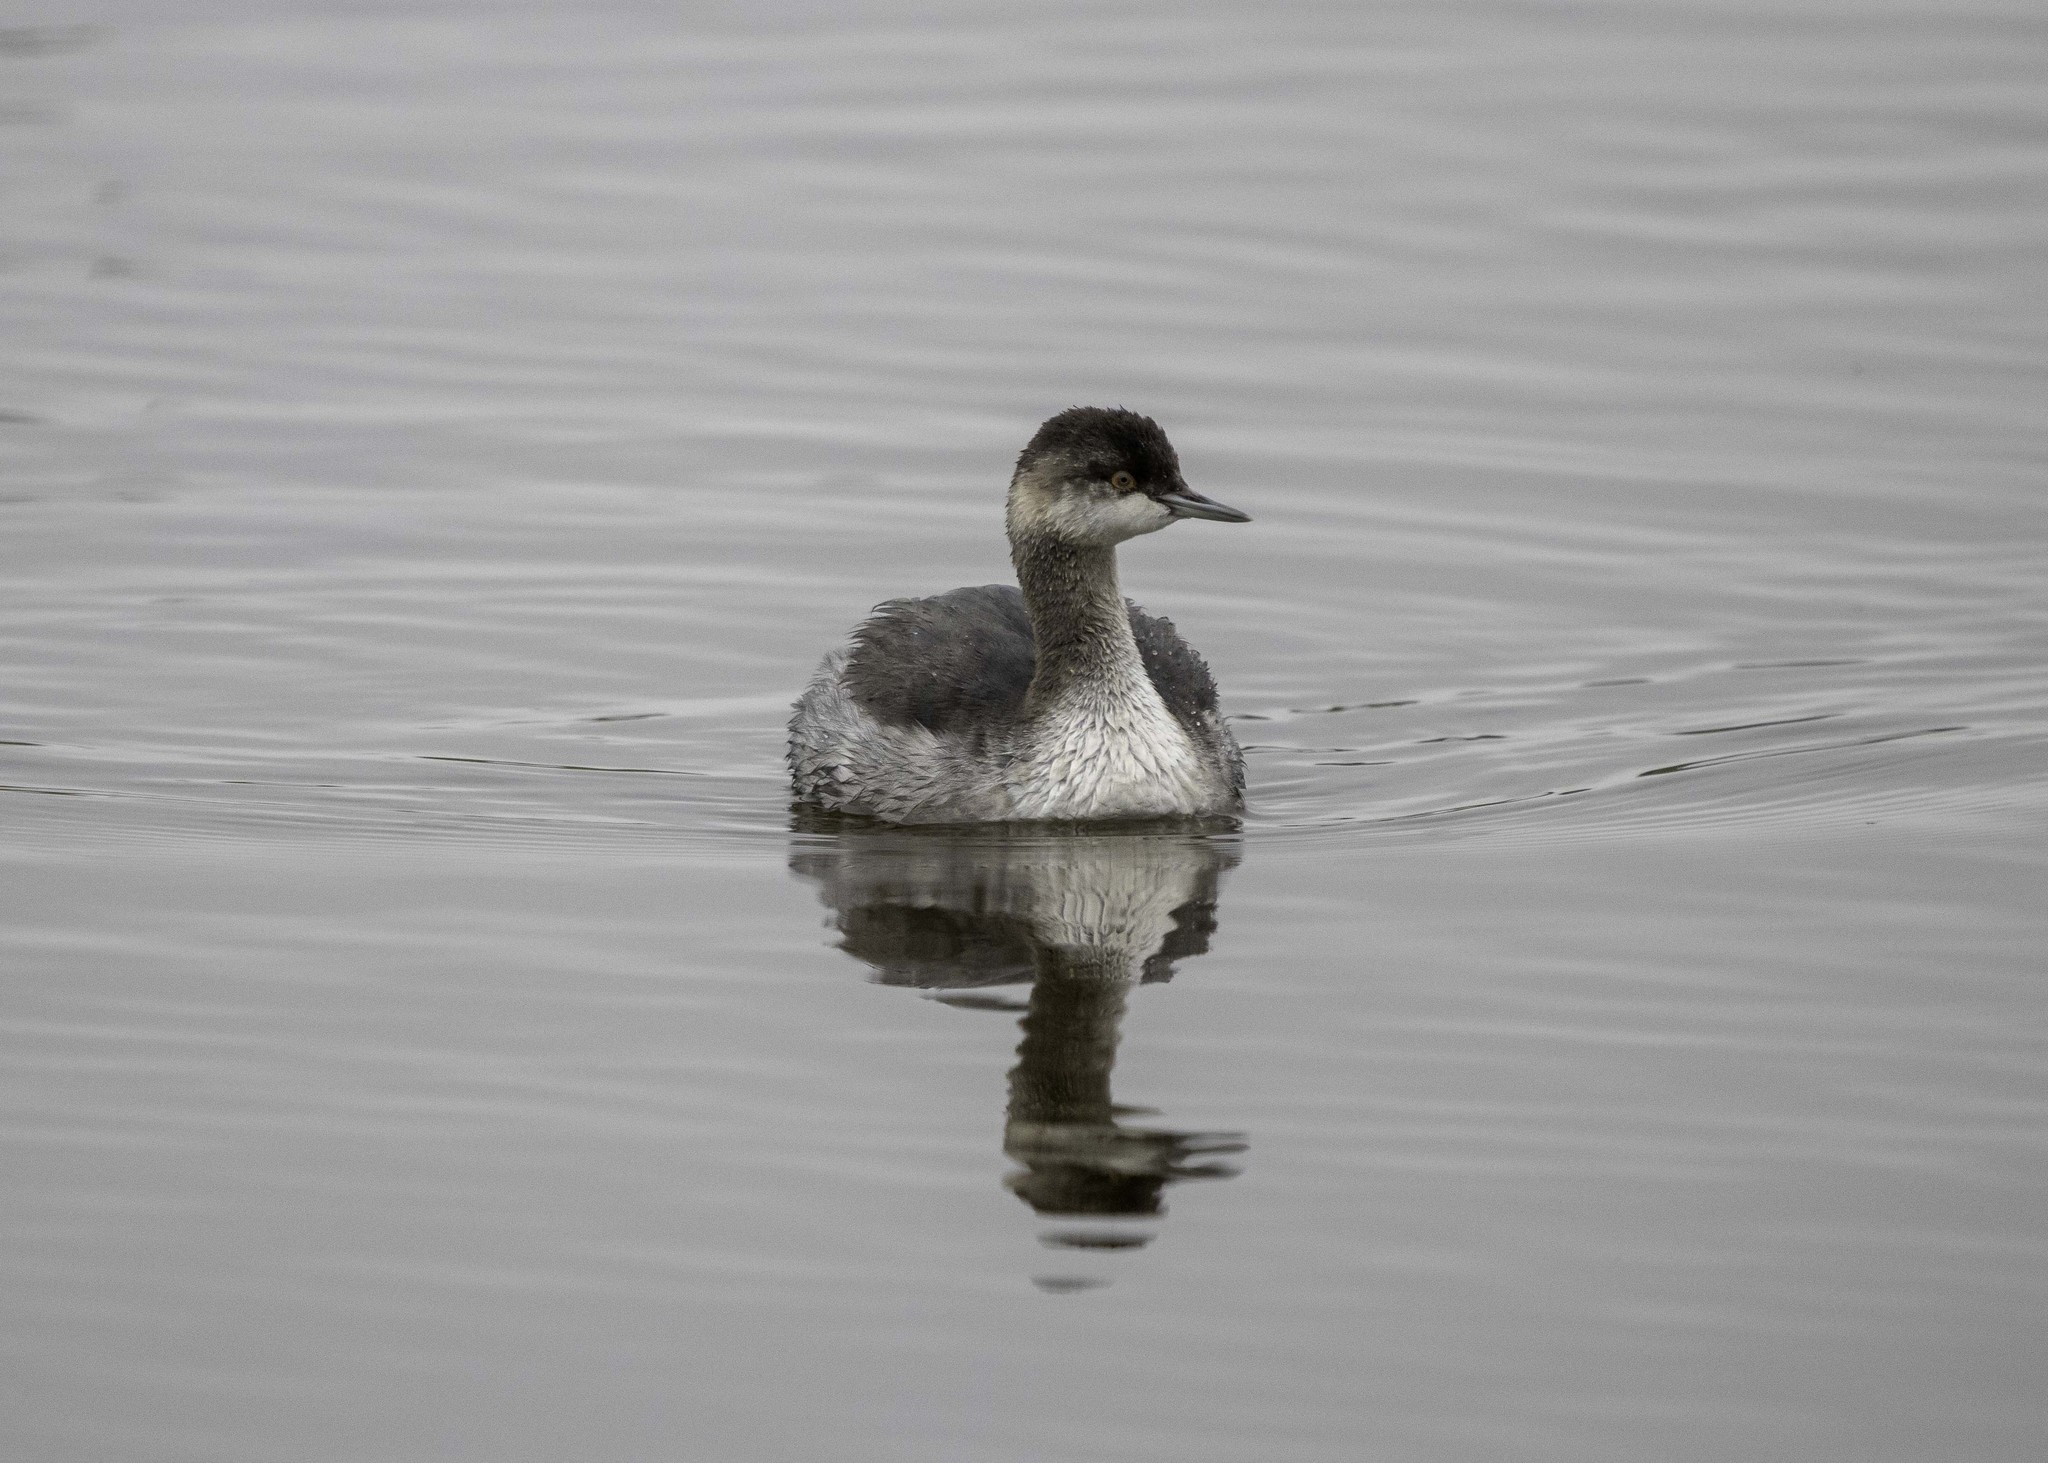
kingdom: Animalia
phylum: Chordata
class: Aves
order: Podicipediformes
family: Podicipedidae
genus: Podiceps
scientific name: Podiceps nigricollis
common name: Black-necked grebe
